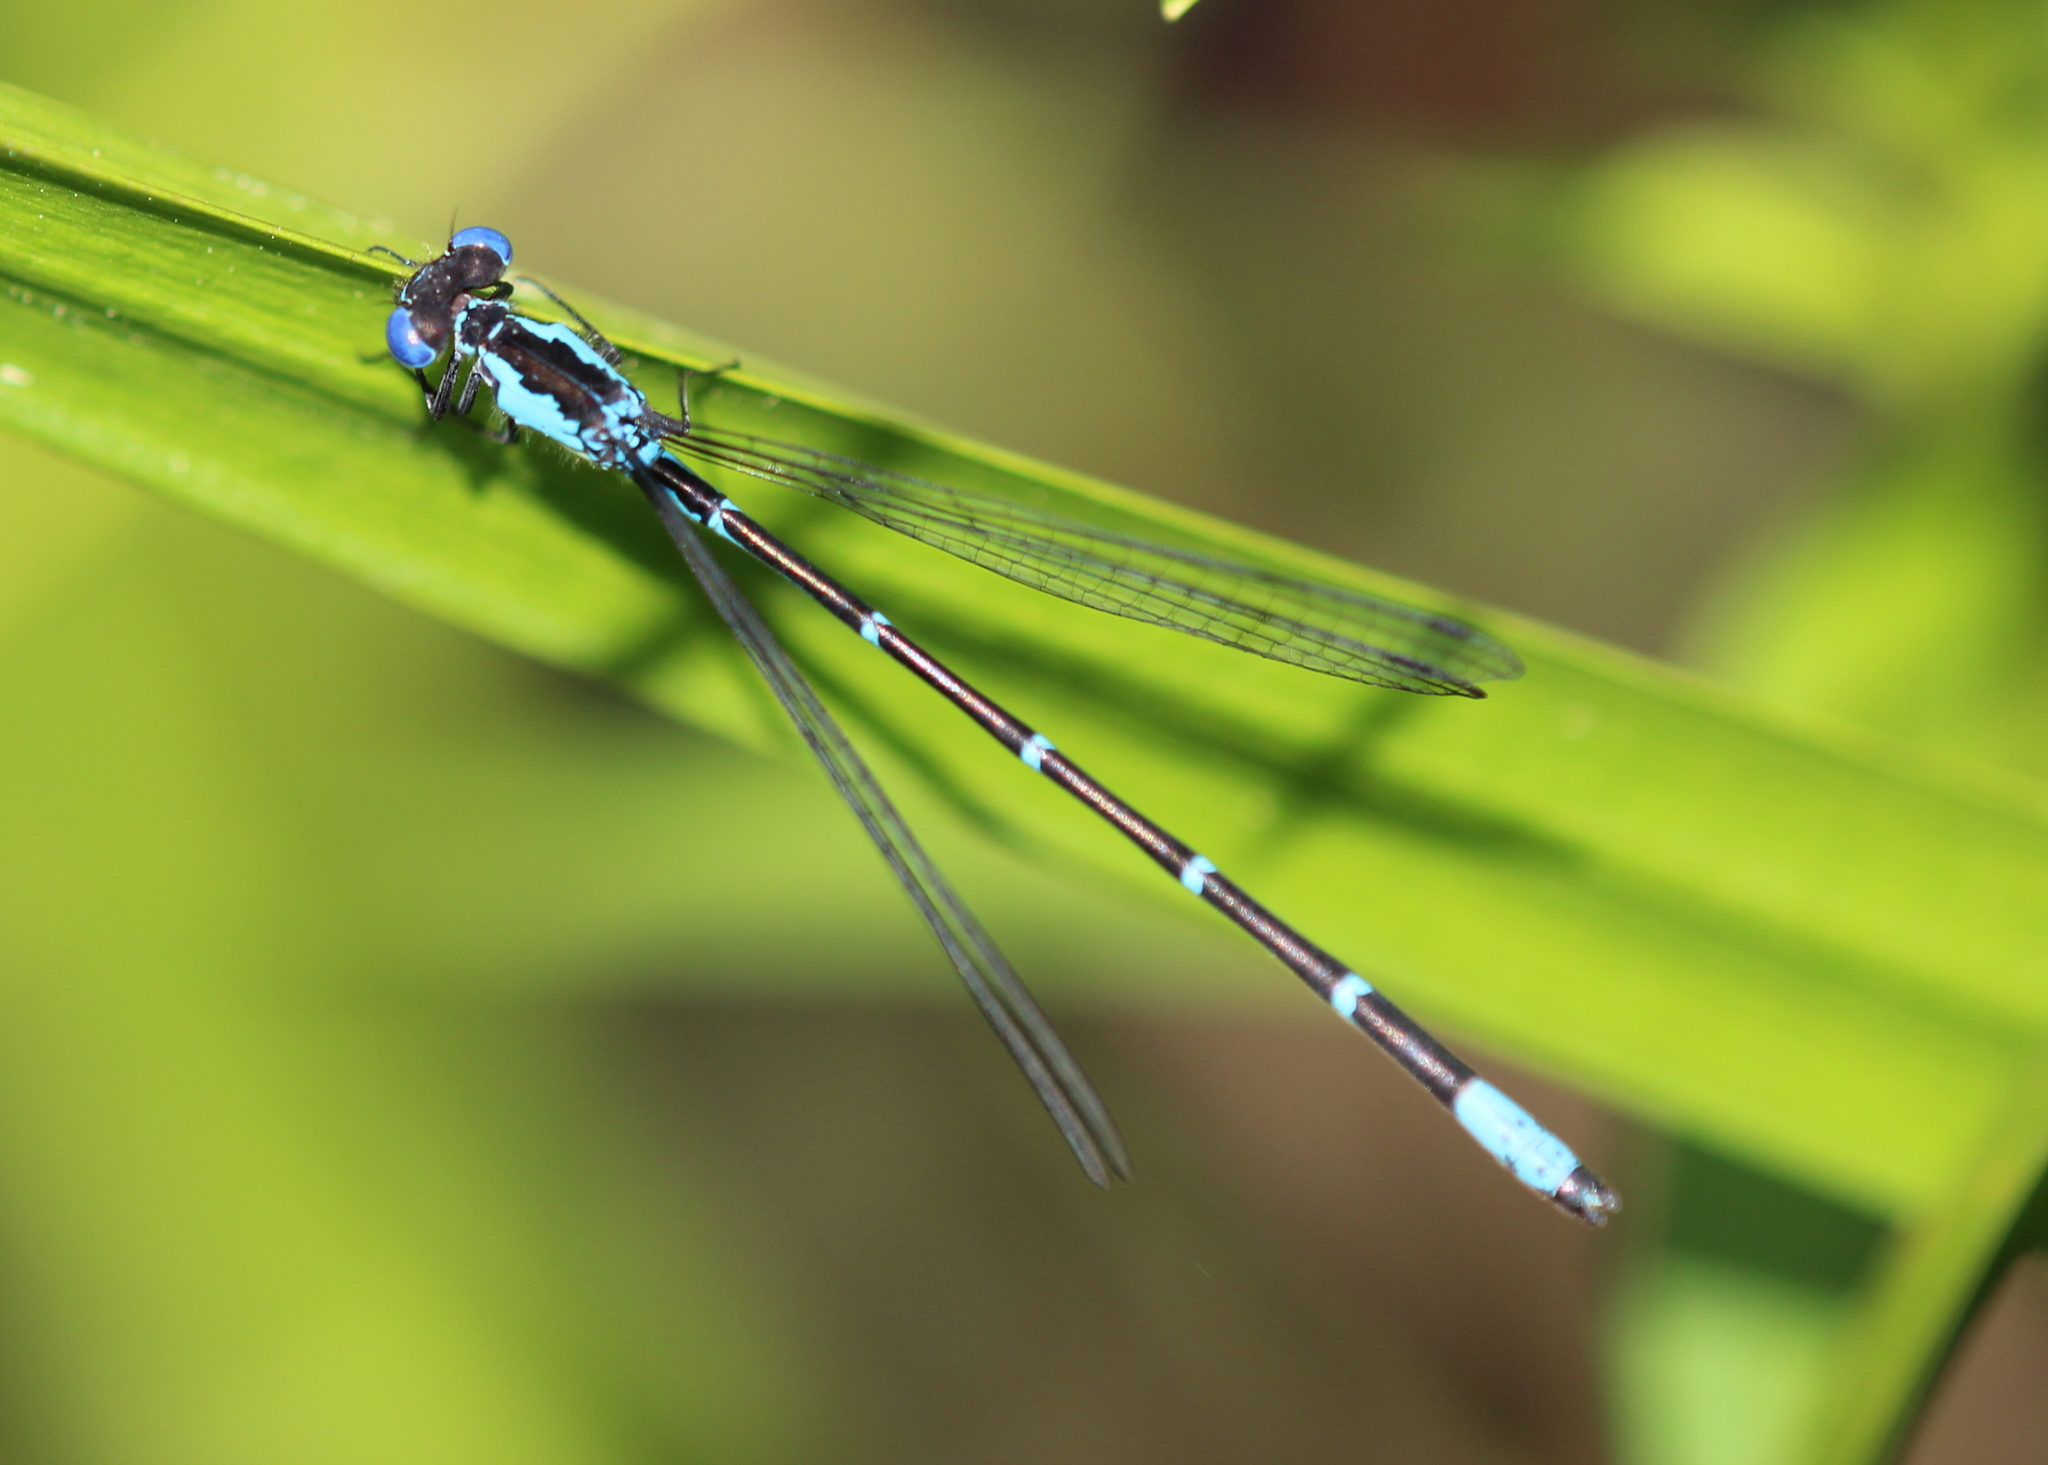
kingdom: Animalia
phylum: Arthropoda
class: Insecta
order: Odonata
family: Coenagrionidae
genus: Chromagrion
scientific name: Chromagrion conditum
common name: Aurora damsel
